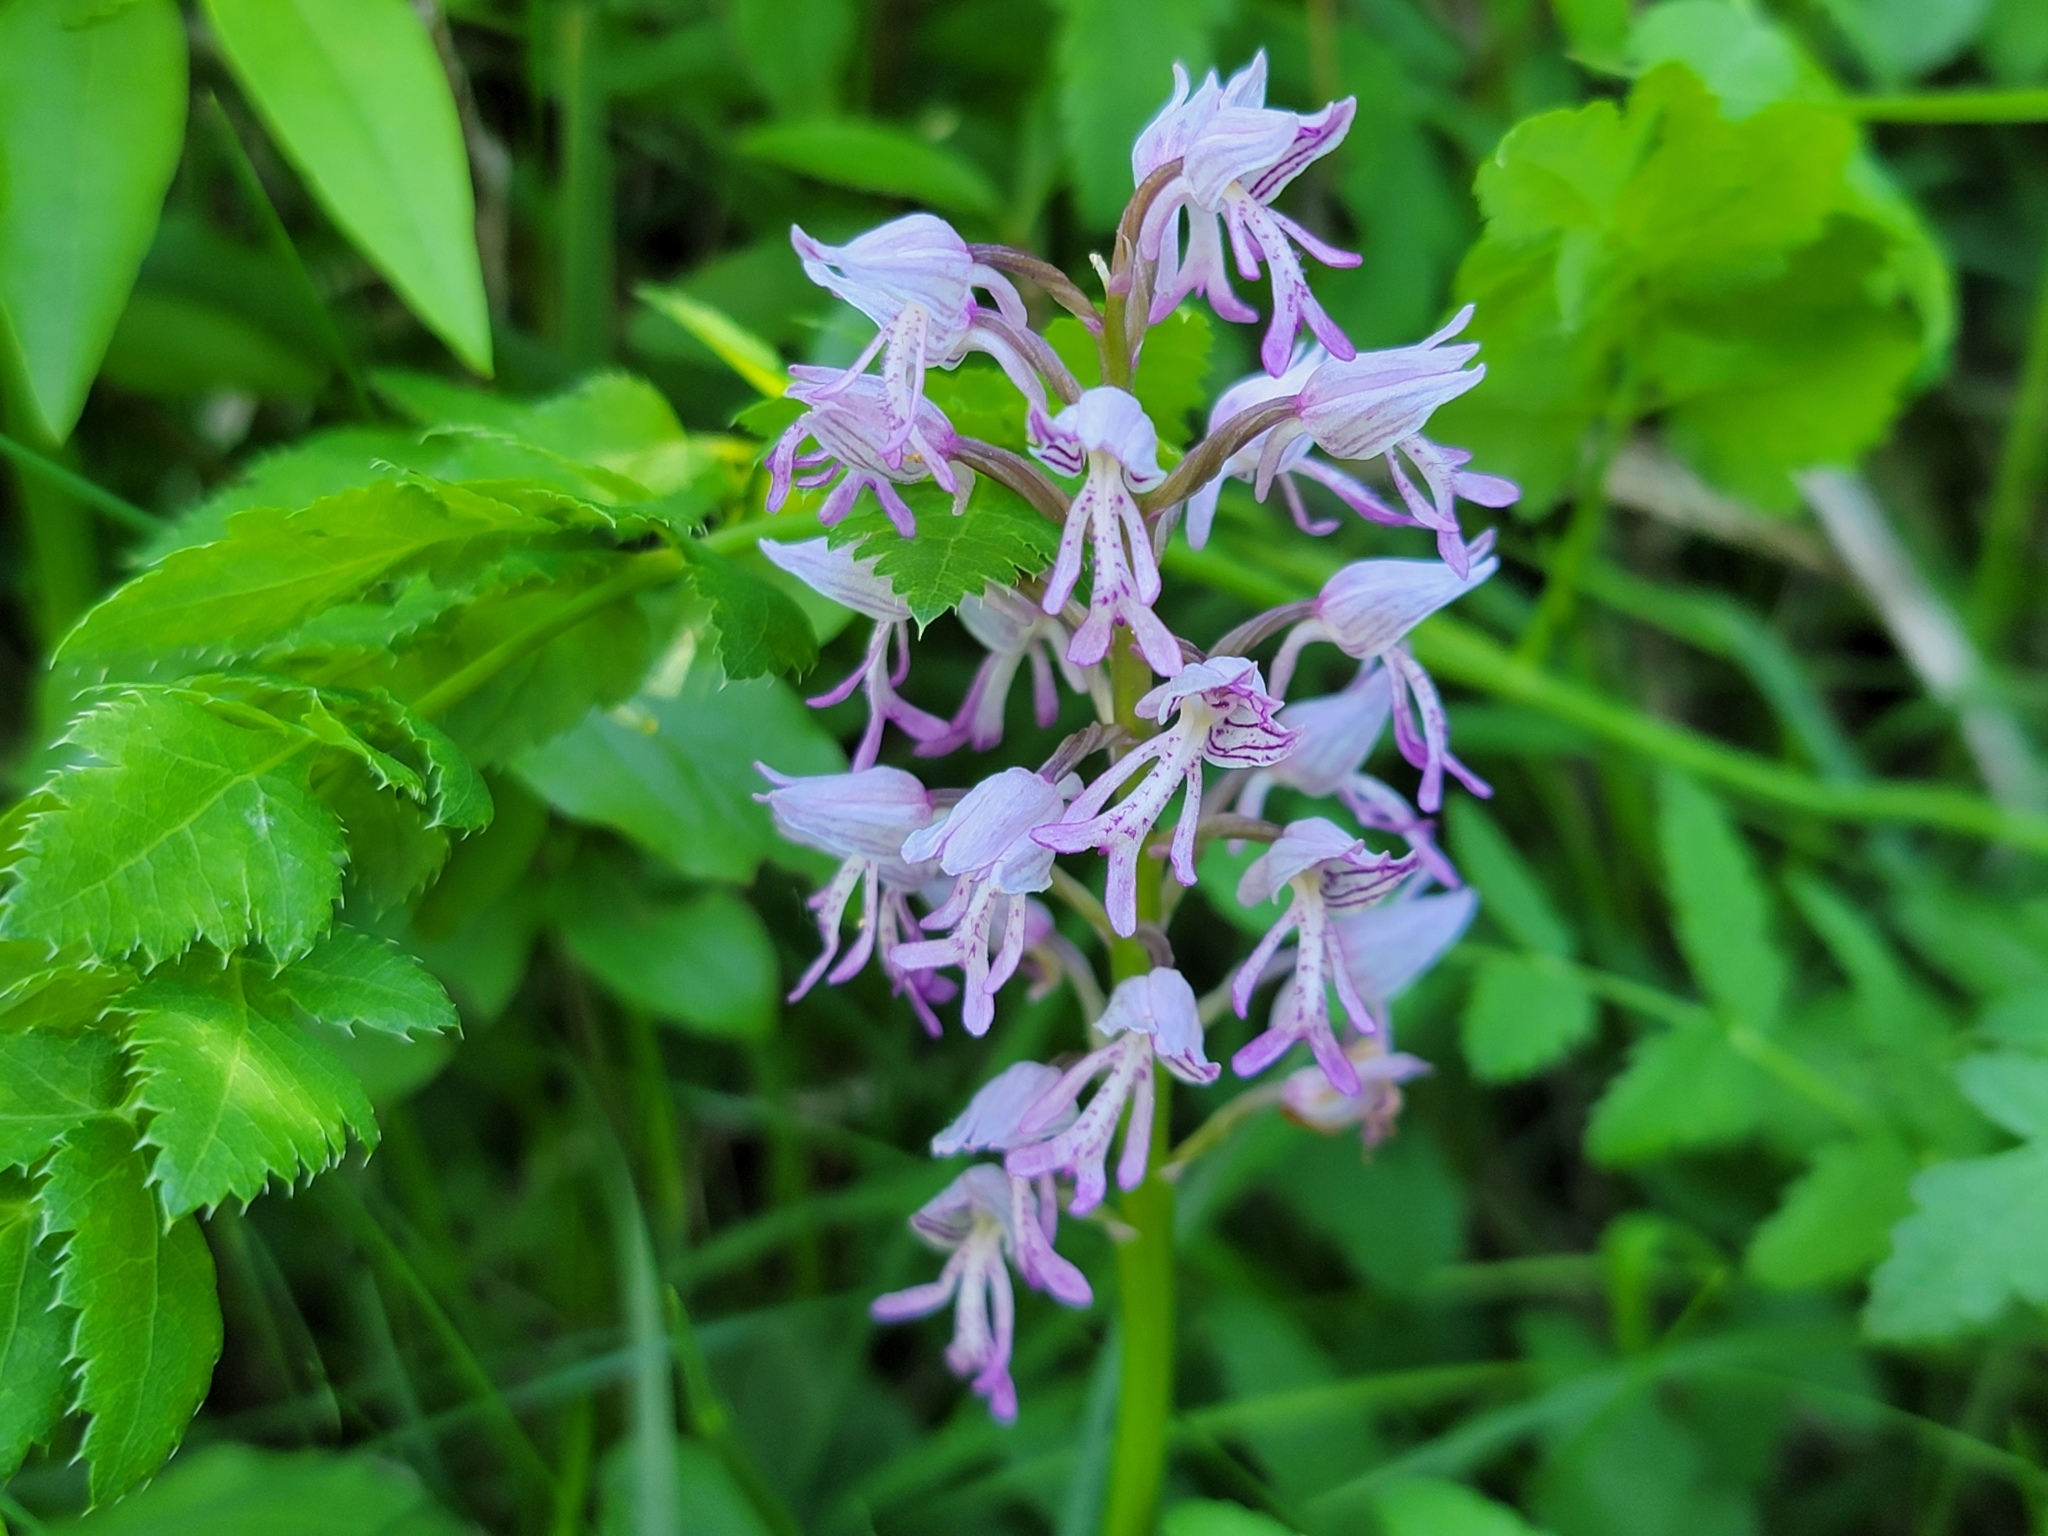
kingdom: Plantae
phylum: Tracheophyta
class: Liliopsida
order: Asparagales
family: Orchidaceae
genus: Orchis
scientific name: Orchis militaris
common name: Military orchid
